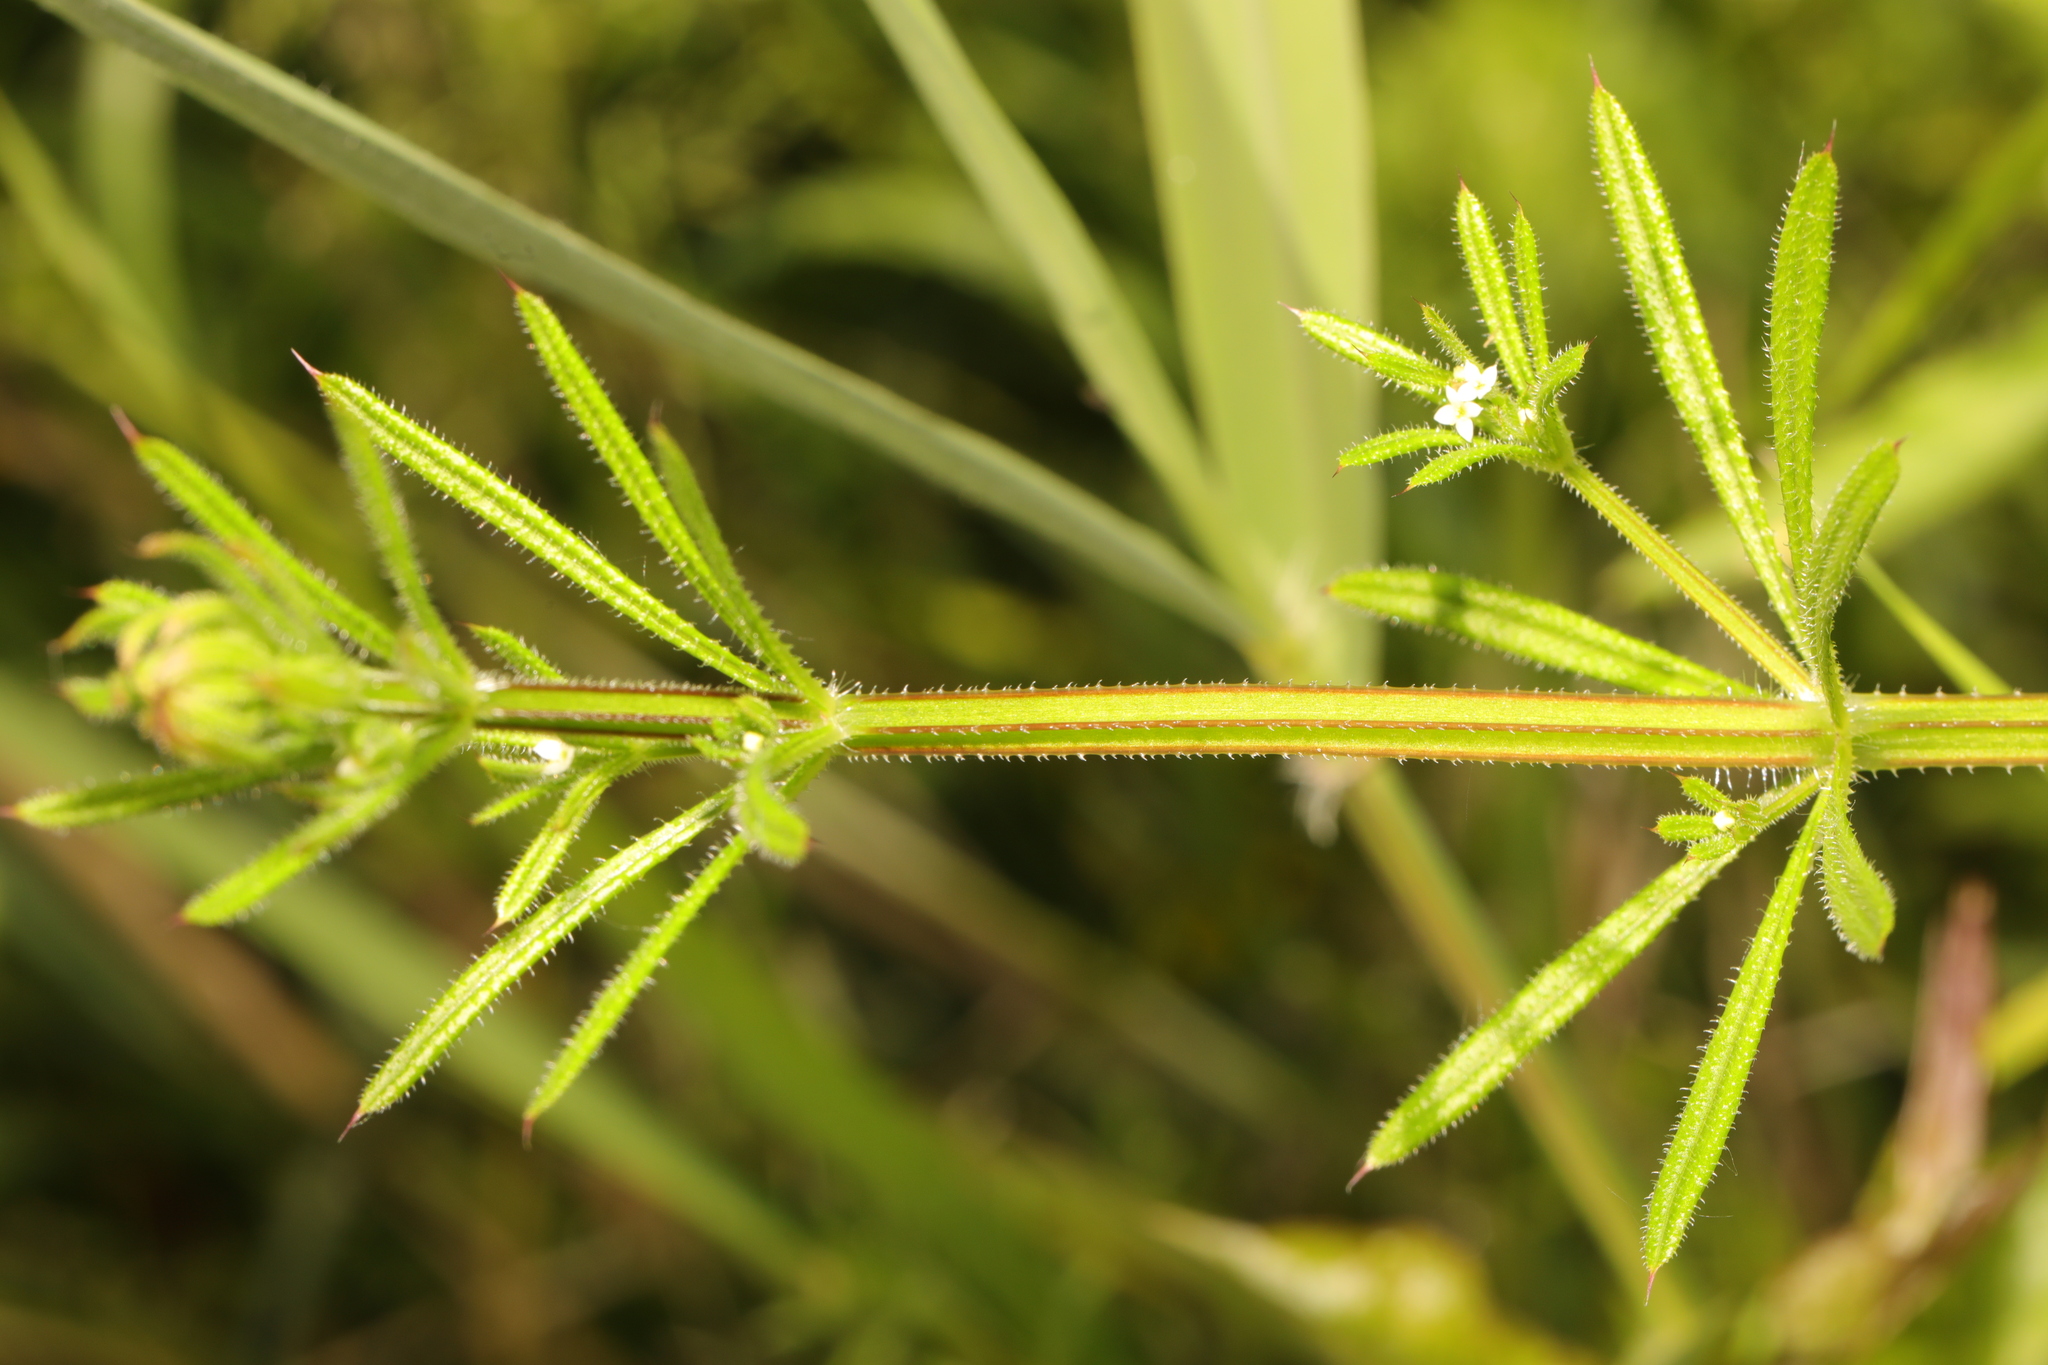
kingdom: Plantae
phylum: Tracheophyta
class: Magnoliopsida
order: Gentianales
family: Rubiaceae
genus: Galium
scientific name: Galium aparine
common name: Cleavers
